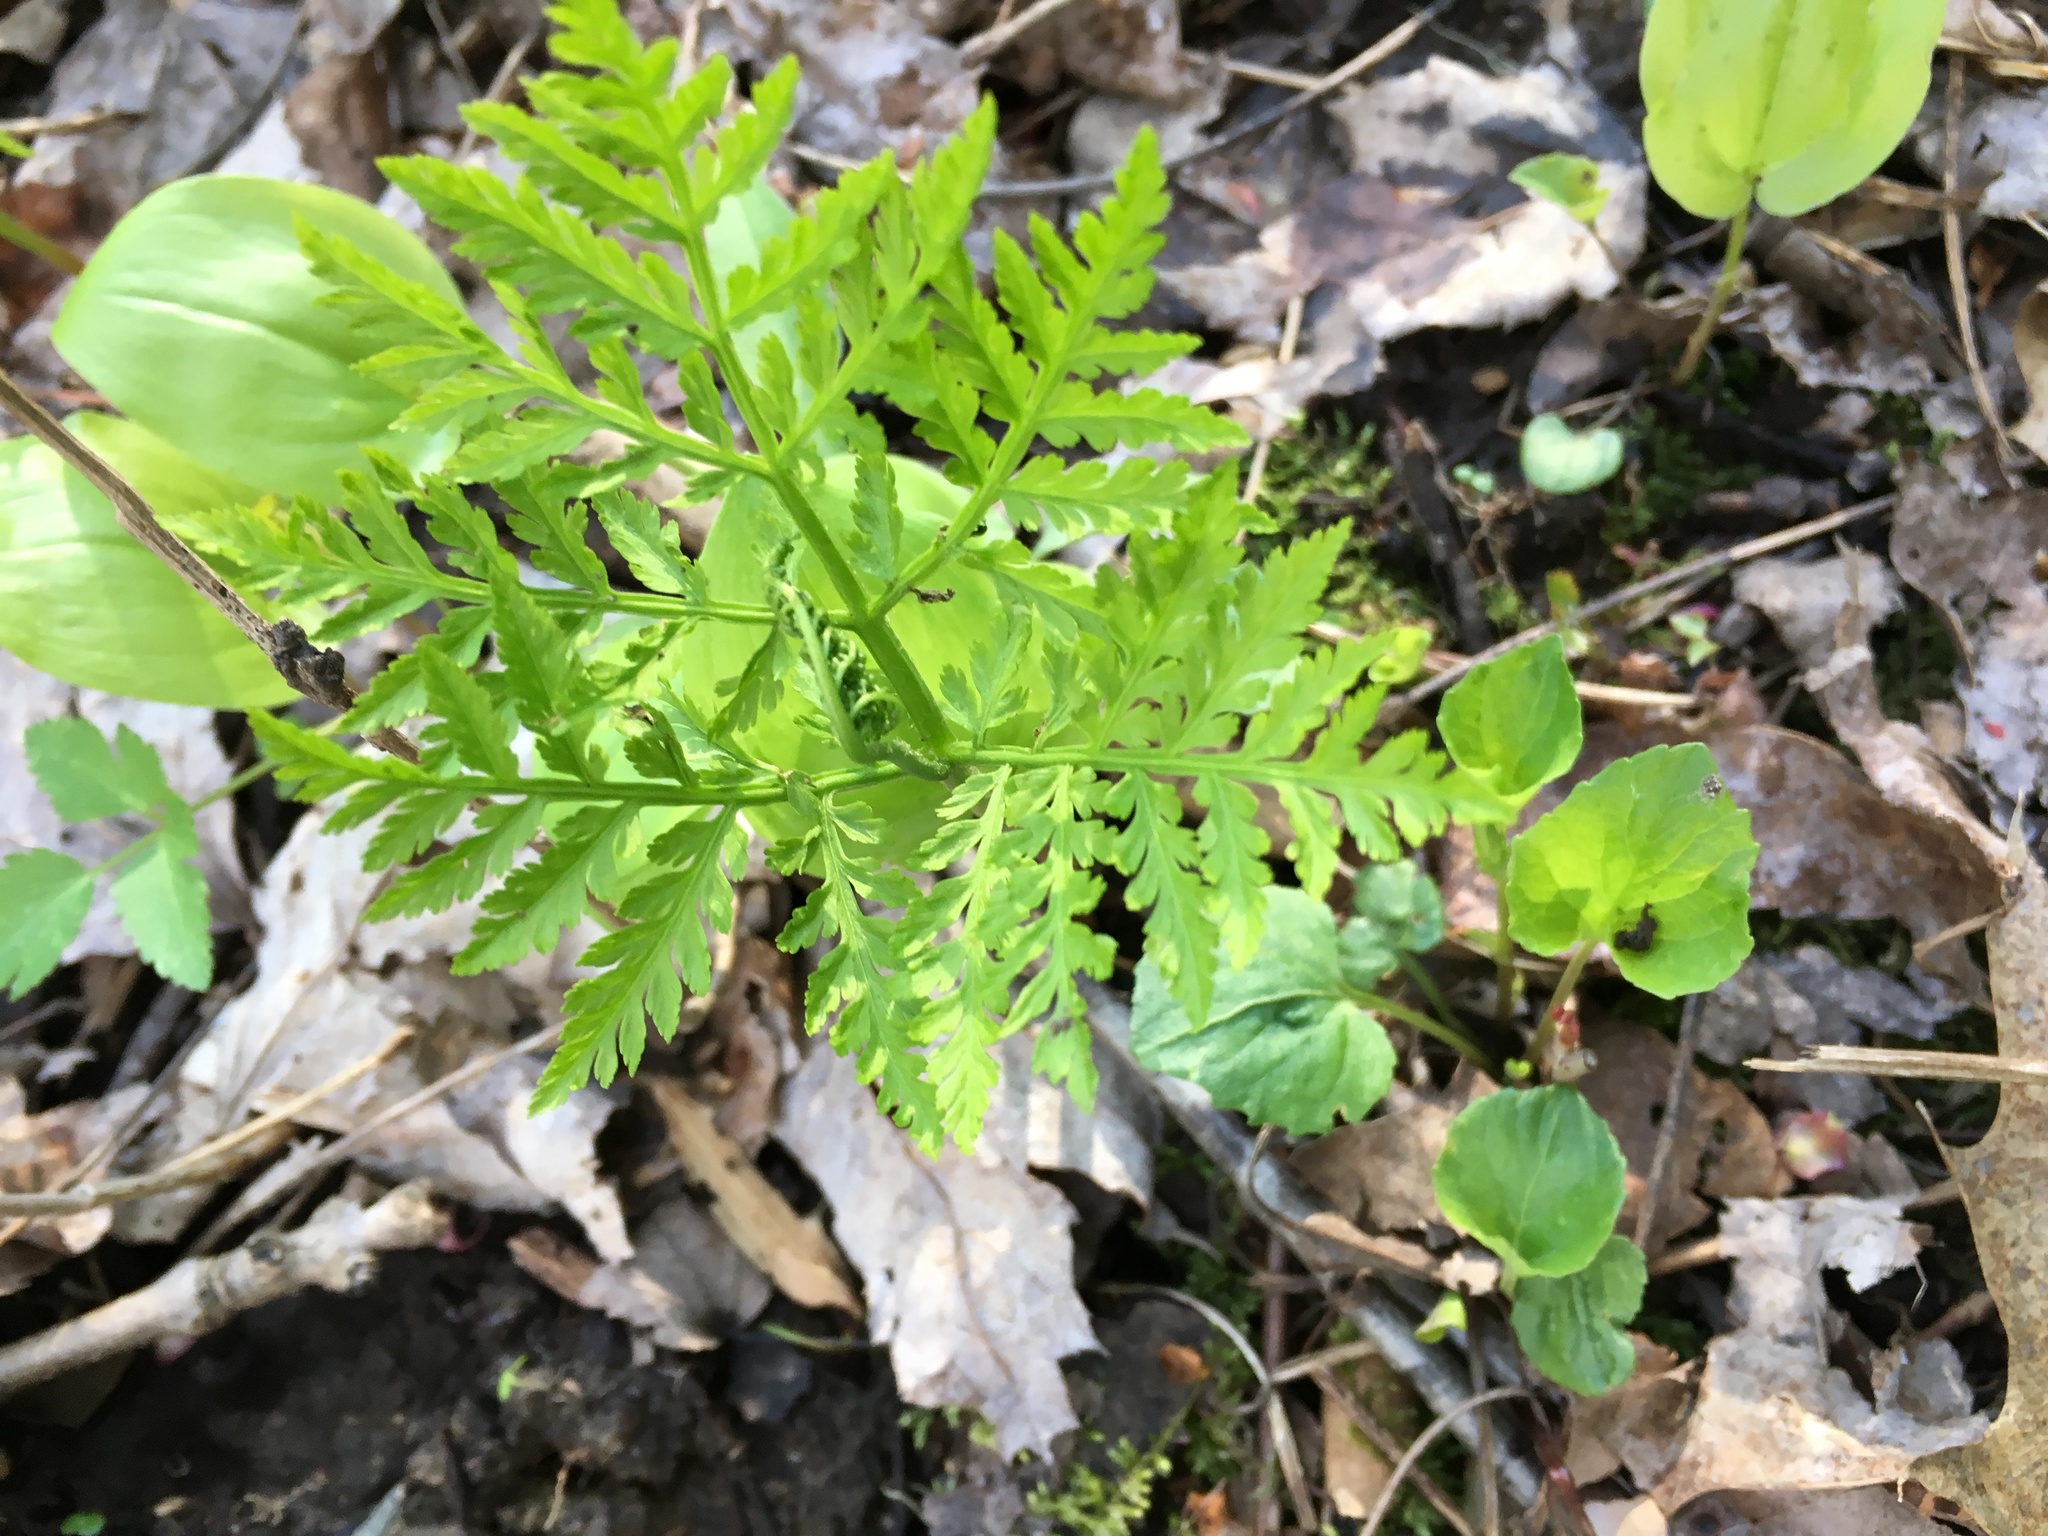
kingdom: Plantae
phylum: Tracheophyta
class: Polypodiopsida
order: Ophioglossales
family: Ophioglossaceae
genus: Botrypus
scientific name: Botrypus virginianus
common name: Common grapefern
